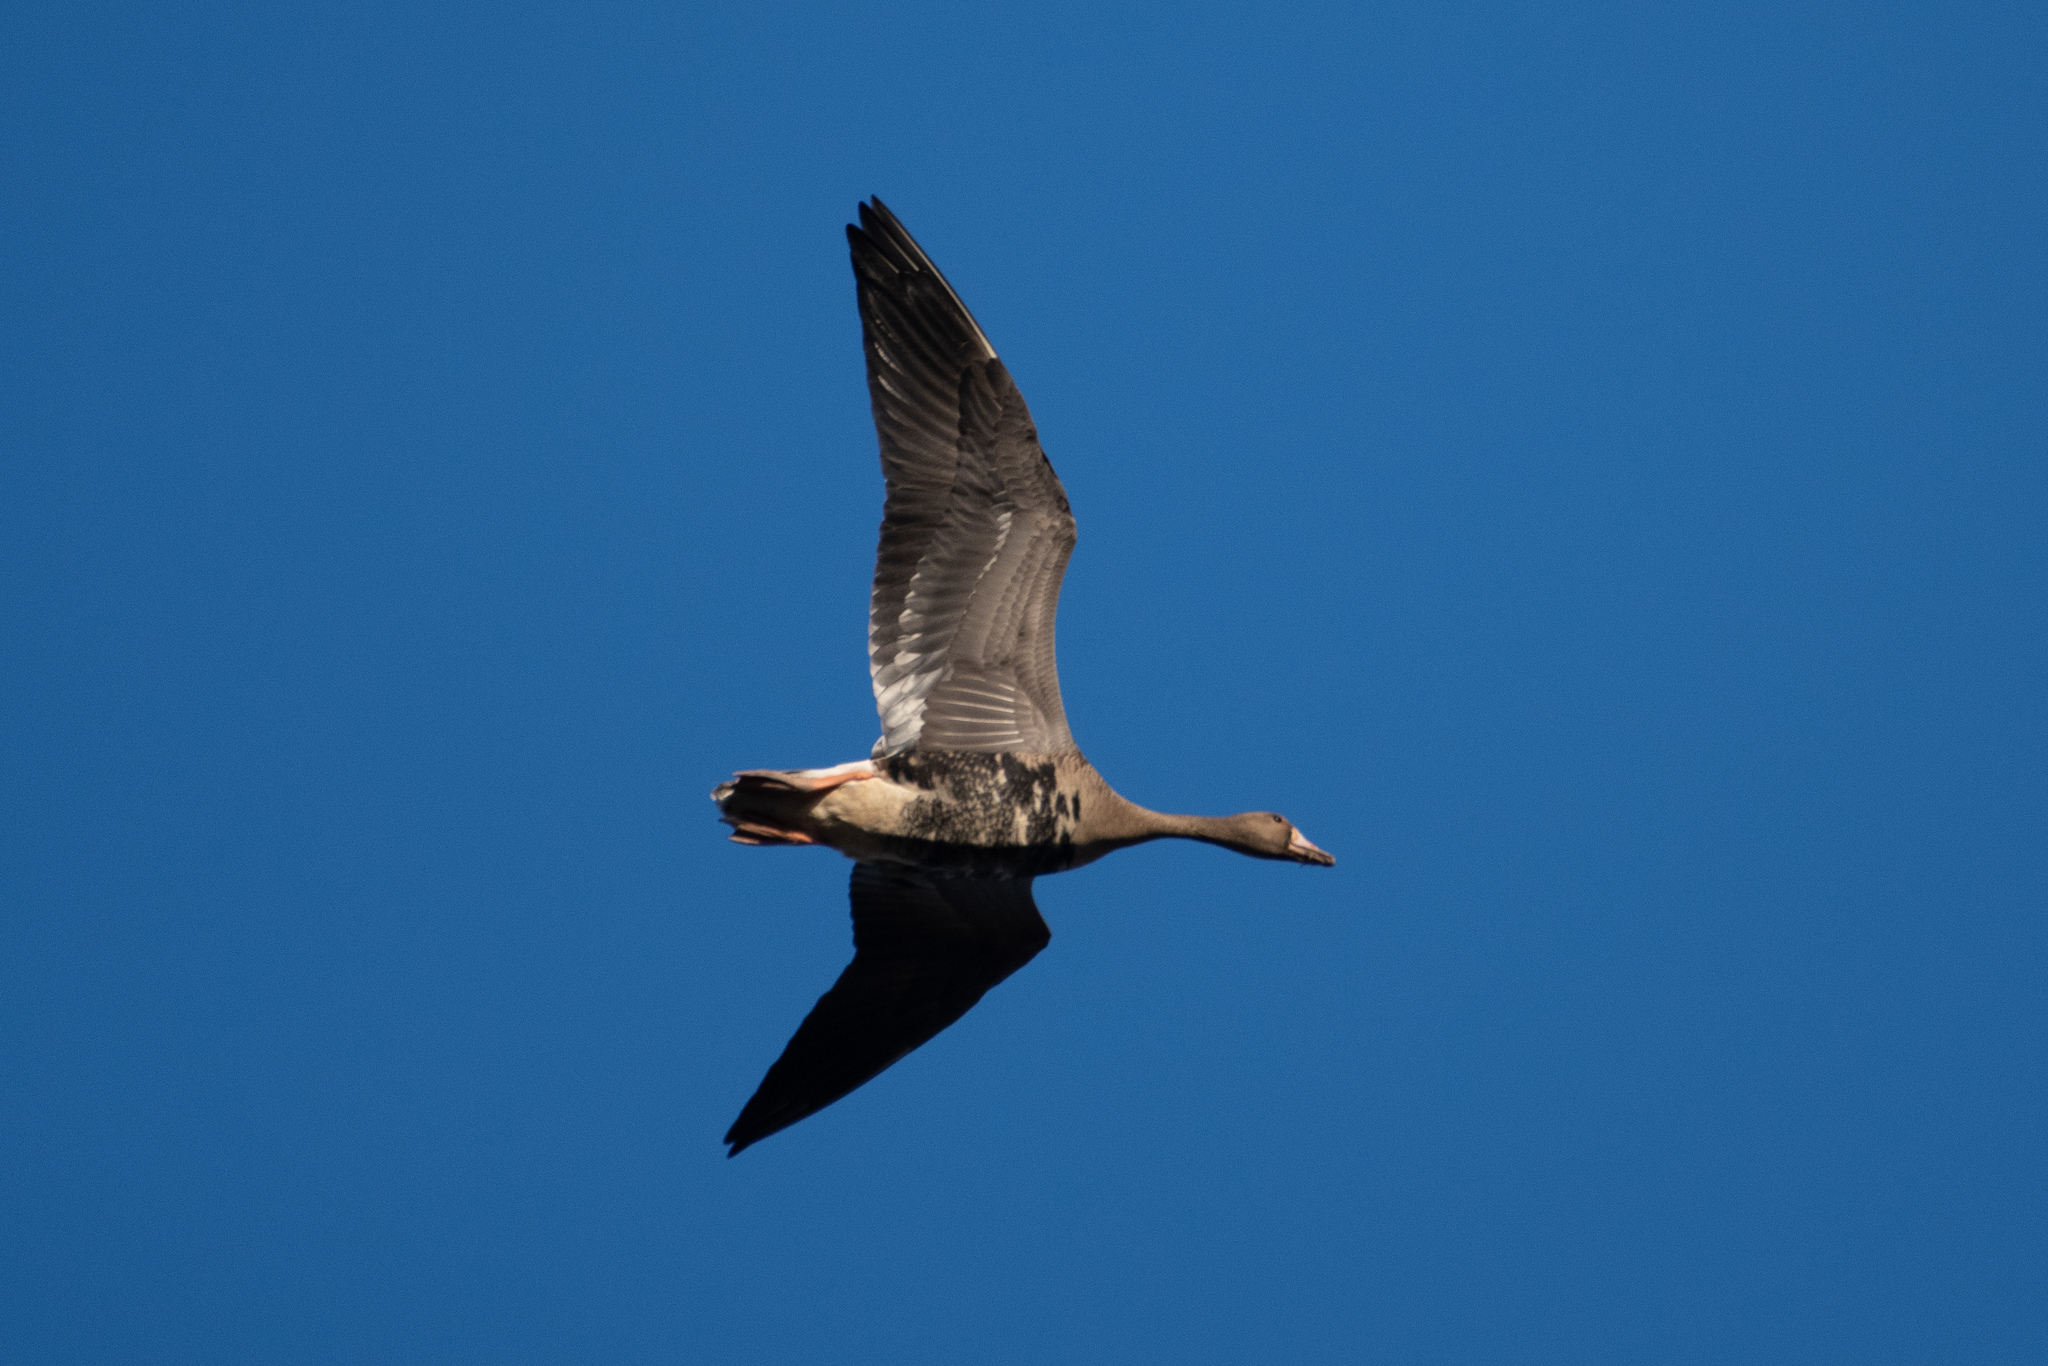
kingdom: Animalia
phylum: Chordata
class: Aves
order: Anseriformes
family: Anatidae
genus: Anser
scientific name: Anser albifrons
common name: Greater white-fronted goose
